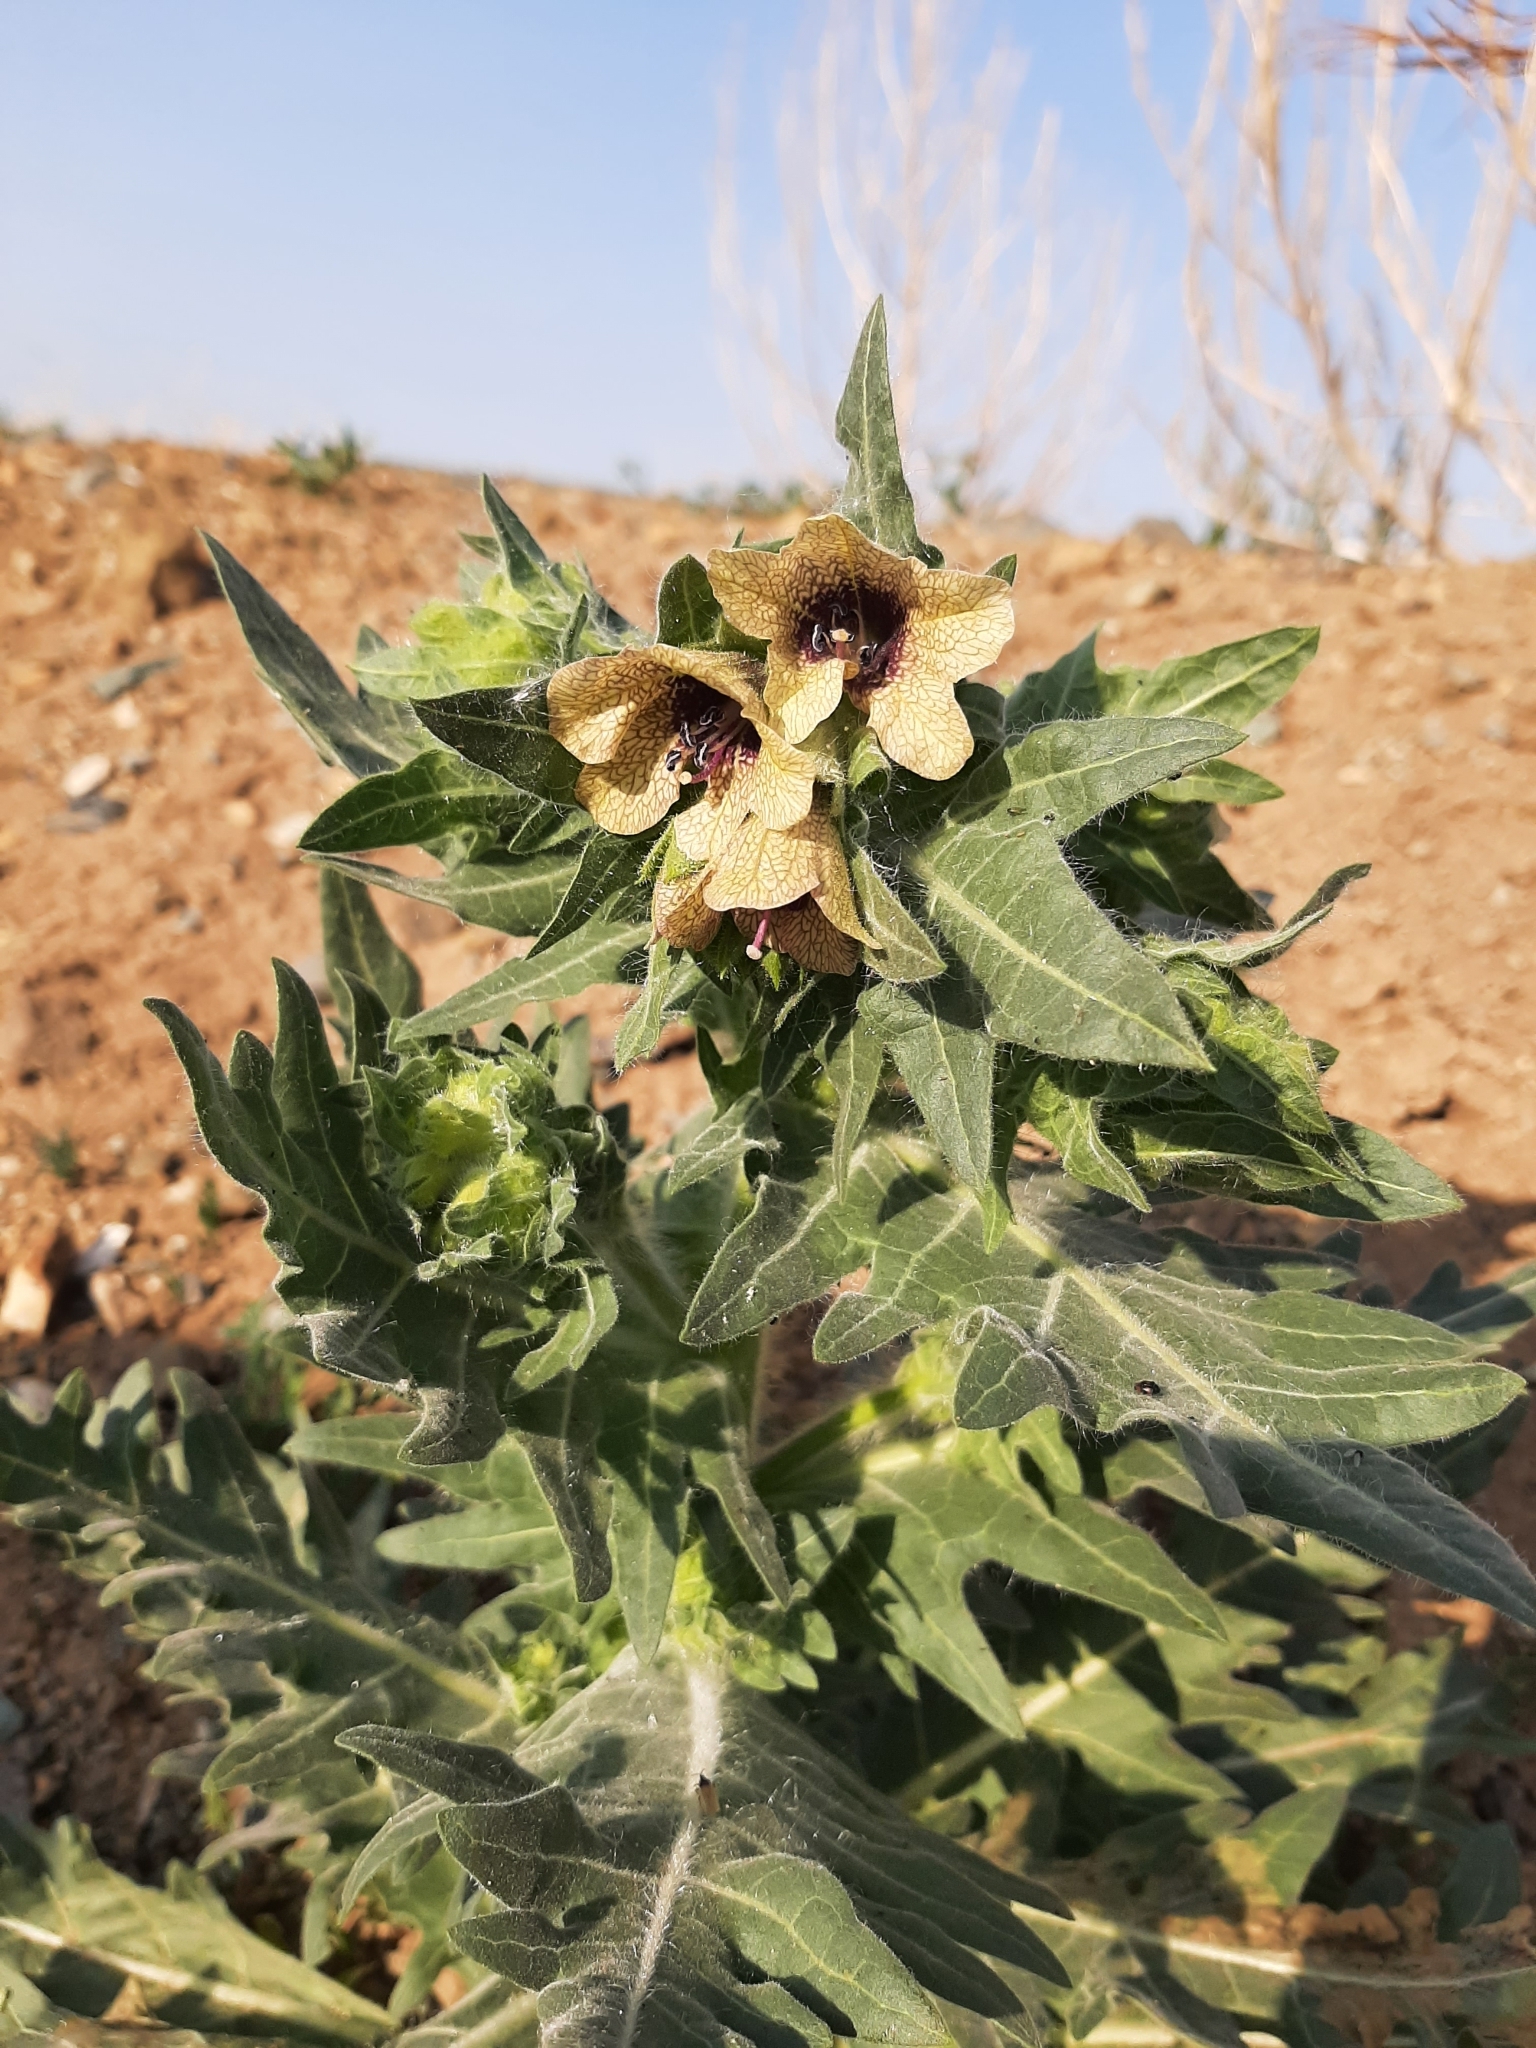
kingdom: Plantae
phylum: Tracheophyta
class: Magnoliopsida
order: Solanales
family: Solanaceae
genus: Hyoscyamus
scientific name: Hyoscyamus niger
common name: Henbane
